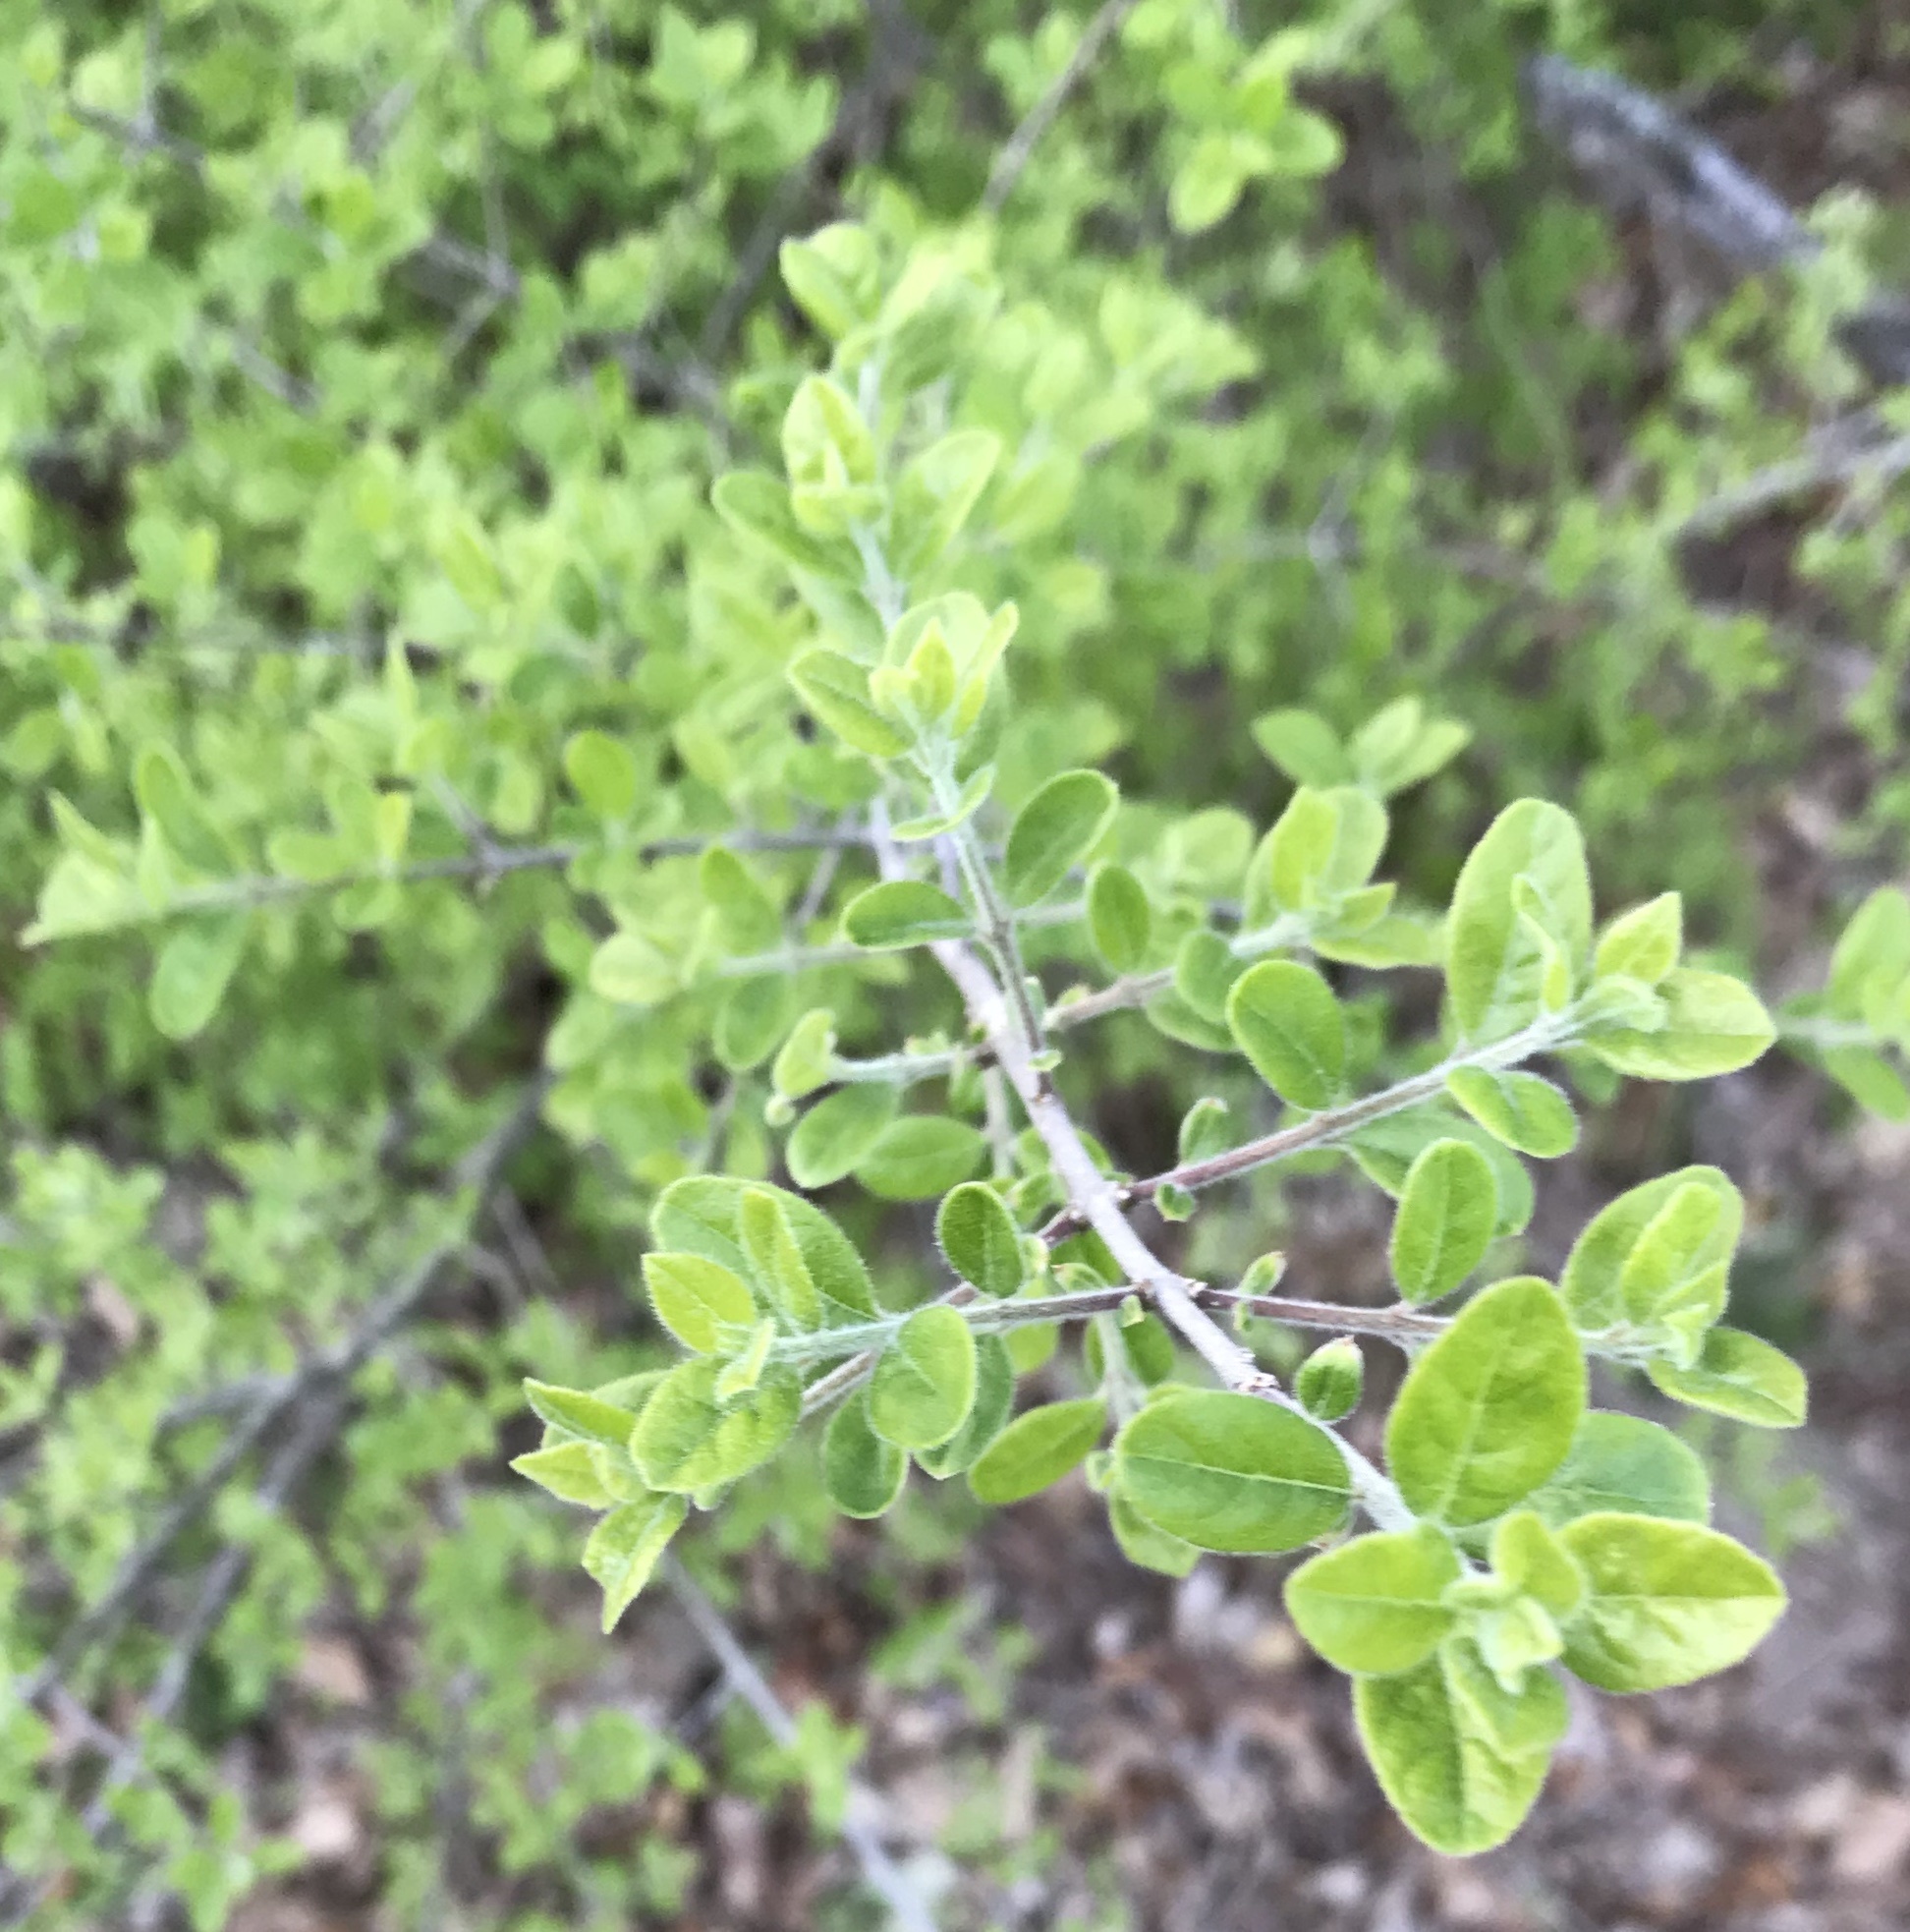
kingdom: Plantae
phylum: Tracheophyta
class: Magnoliopsida
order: Lamiales
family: Oleaceae
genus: Forestiera
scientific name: Forestiera pubescens
